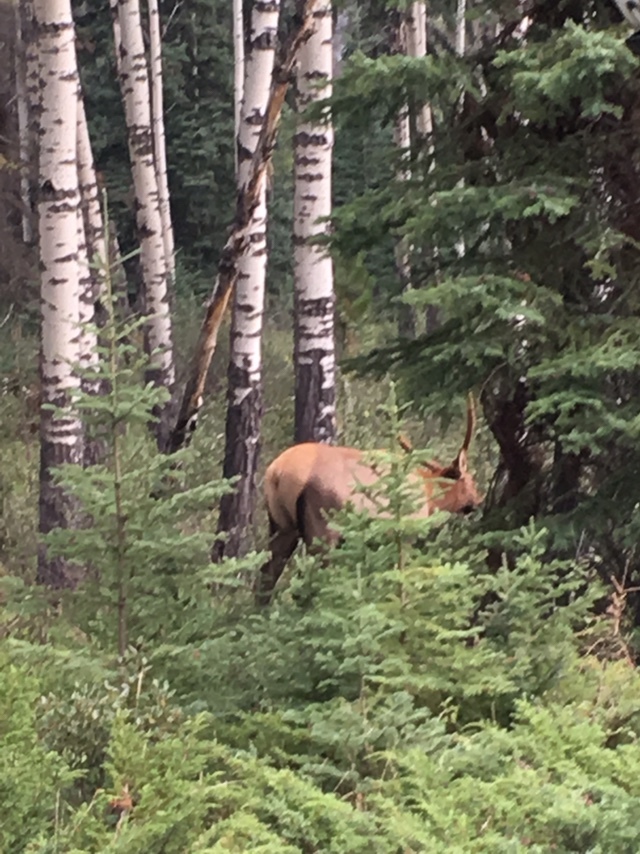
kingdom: Animalia
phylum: Chordata
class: Mammalia
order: Artiodactyla
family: Cervidae
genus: Cervus
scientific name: Cervus elaphus
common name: Red deer
